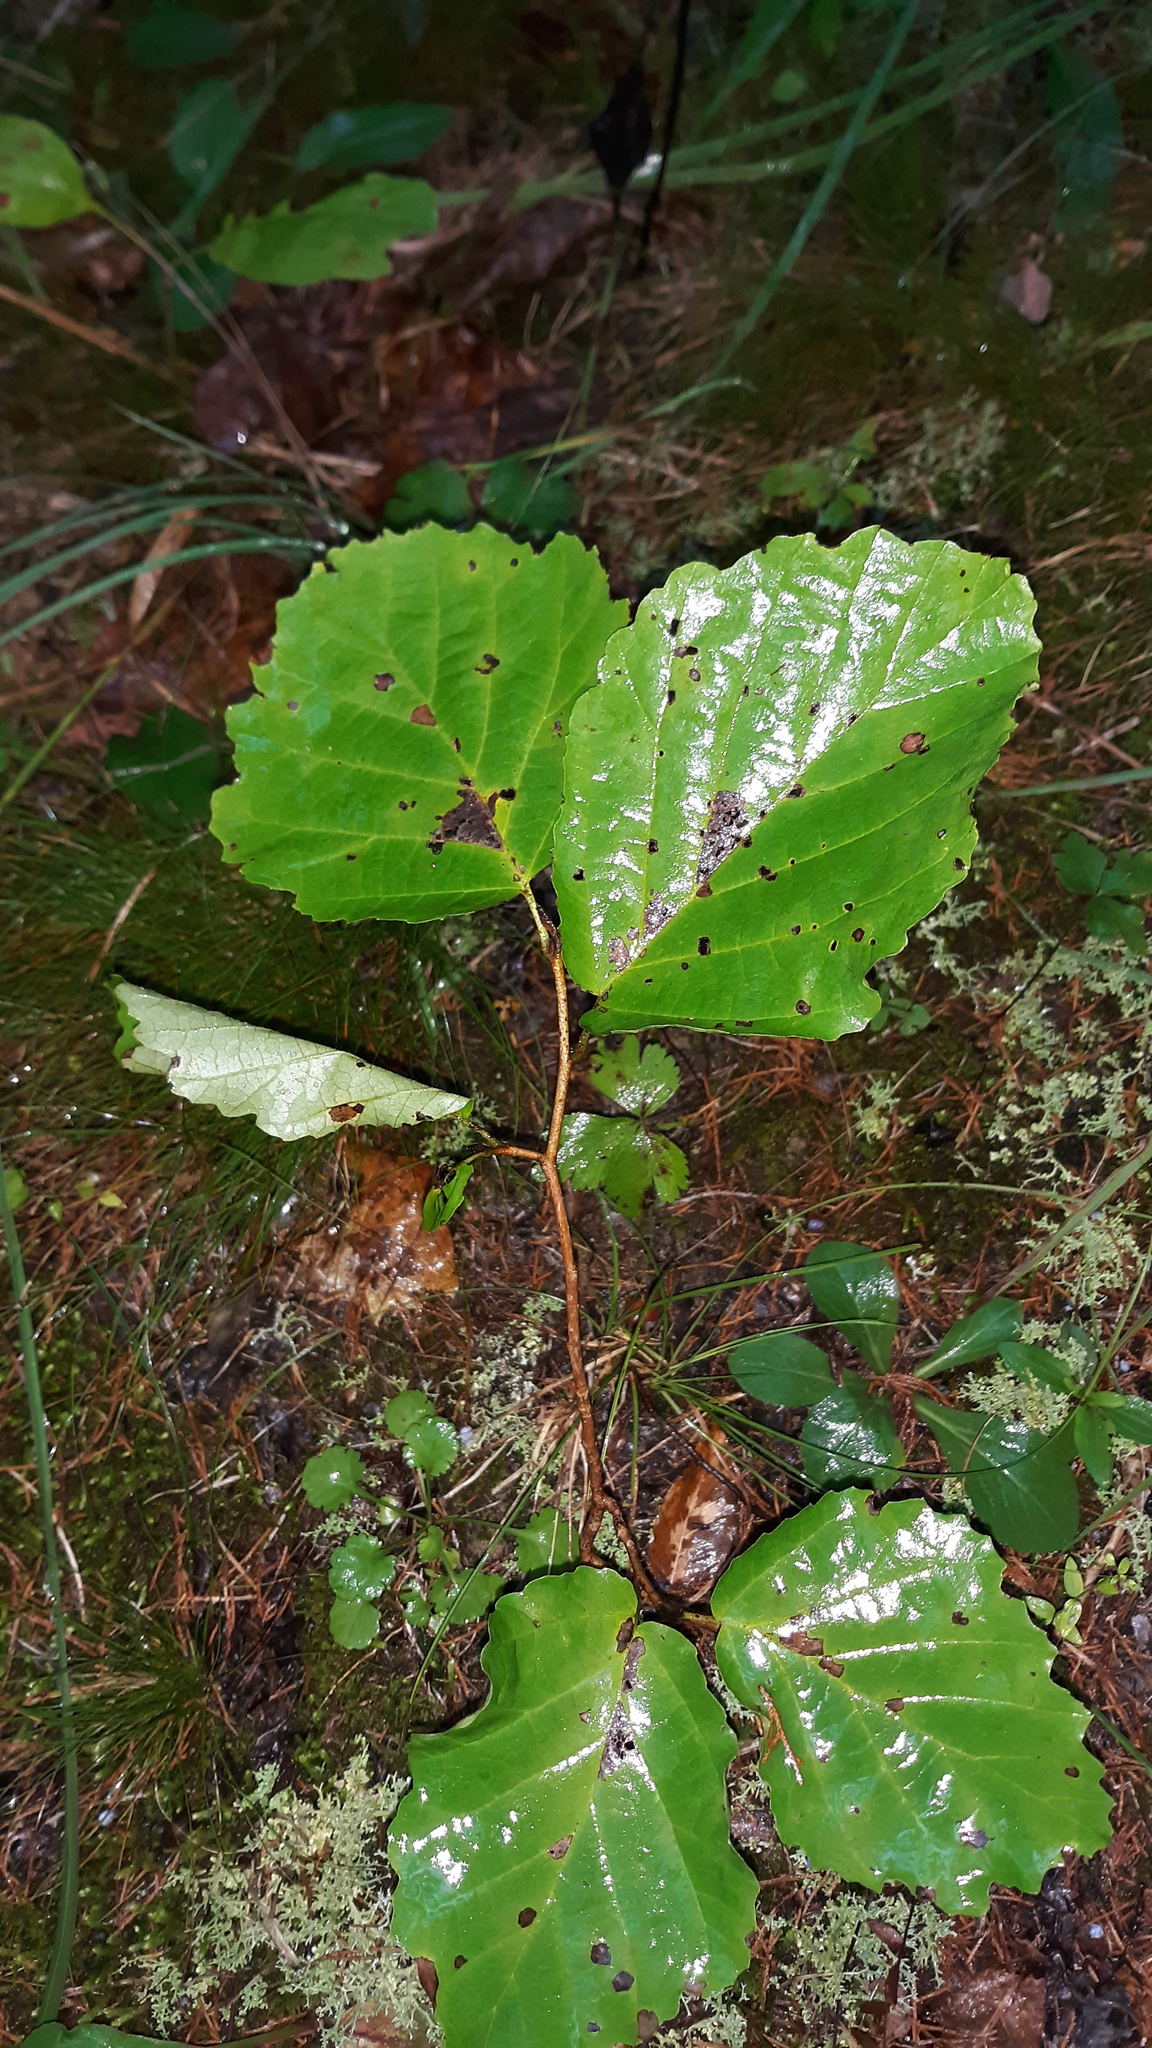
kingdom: Plantae
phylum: Tracheophyta
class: Magnoliopsida
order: Saxifragales
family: Hamamelidaceae
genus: Hamamelis
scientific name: Hamamelis virginiana
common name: Witch-hazel
